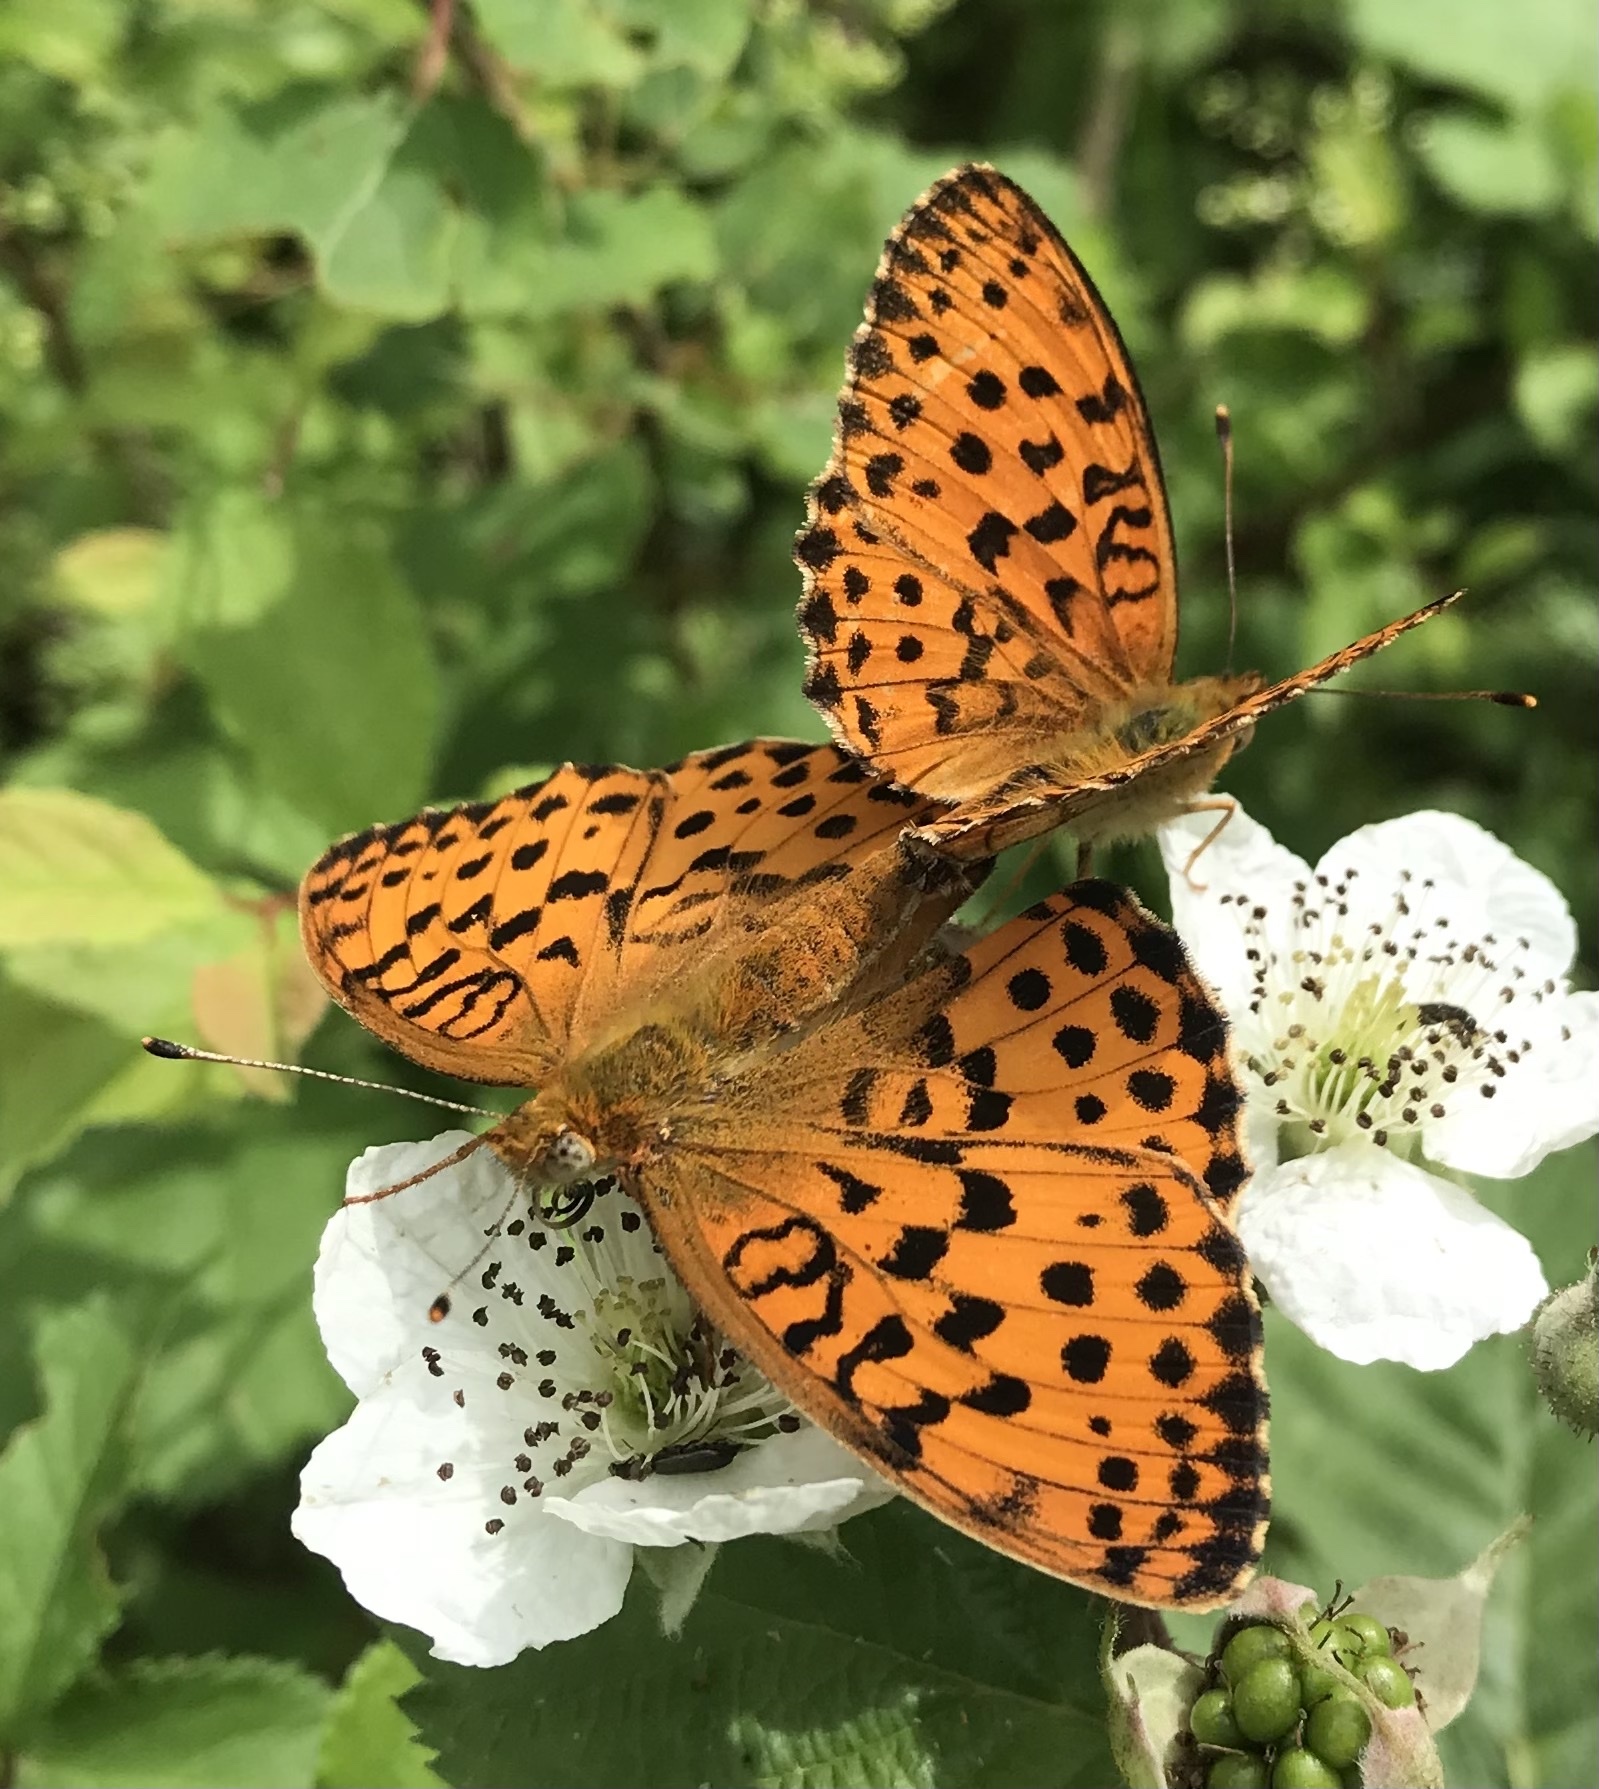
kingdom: Animalia
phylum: Arthropoda
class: Insecta
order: Lepidoptera
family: Nymphalidae
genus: Brenthis
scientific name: Brenthis daphne
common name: Marbled fritillary
